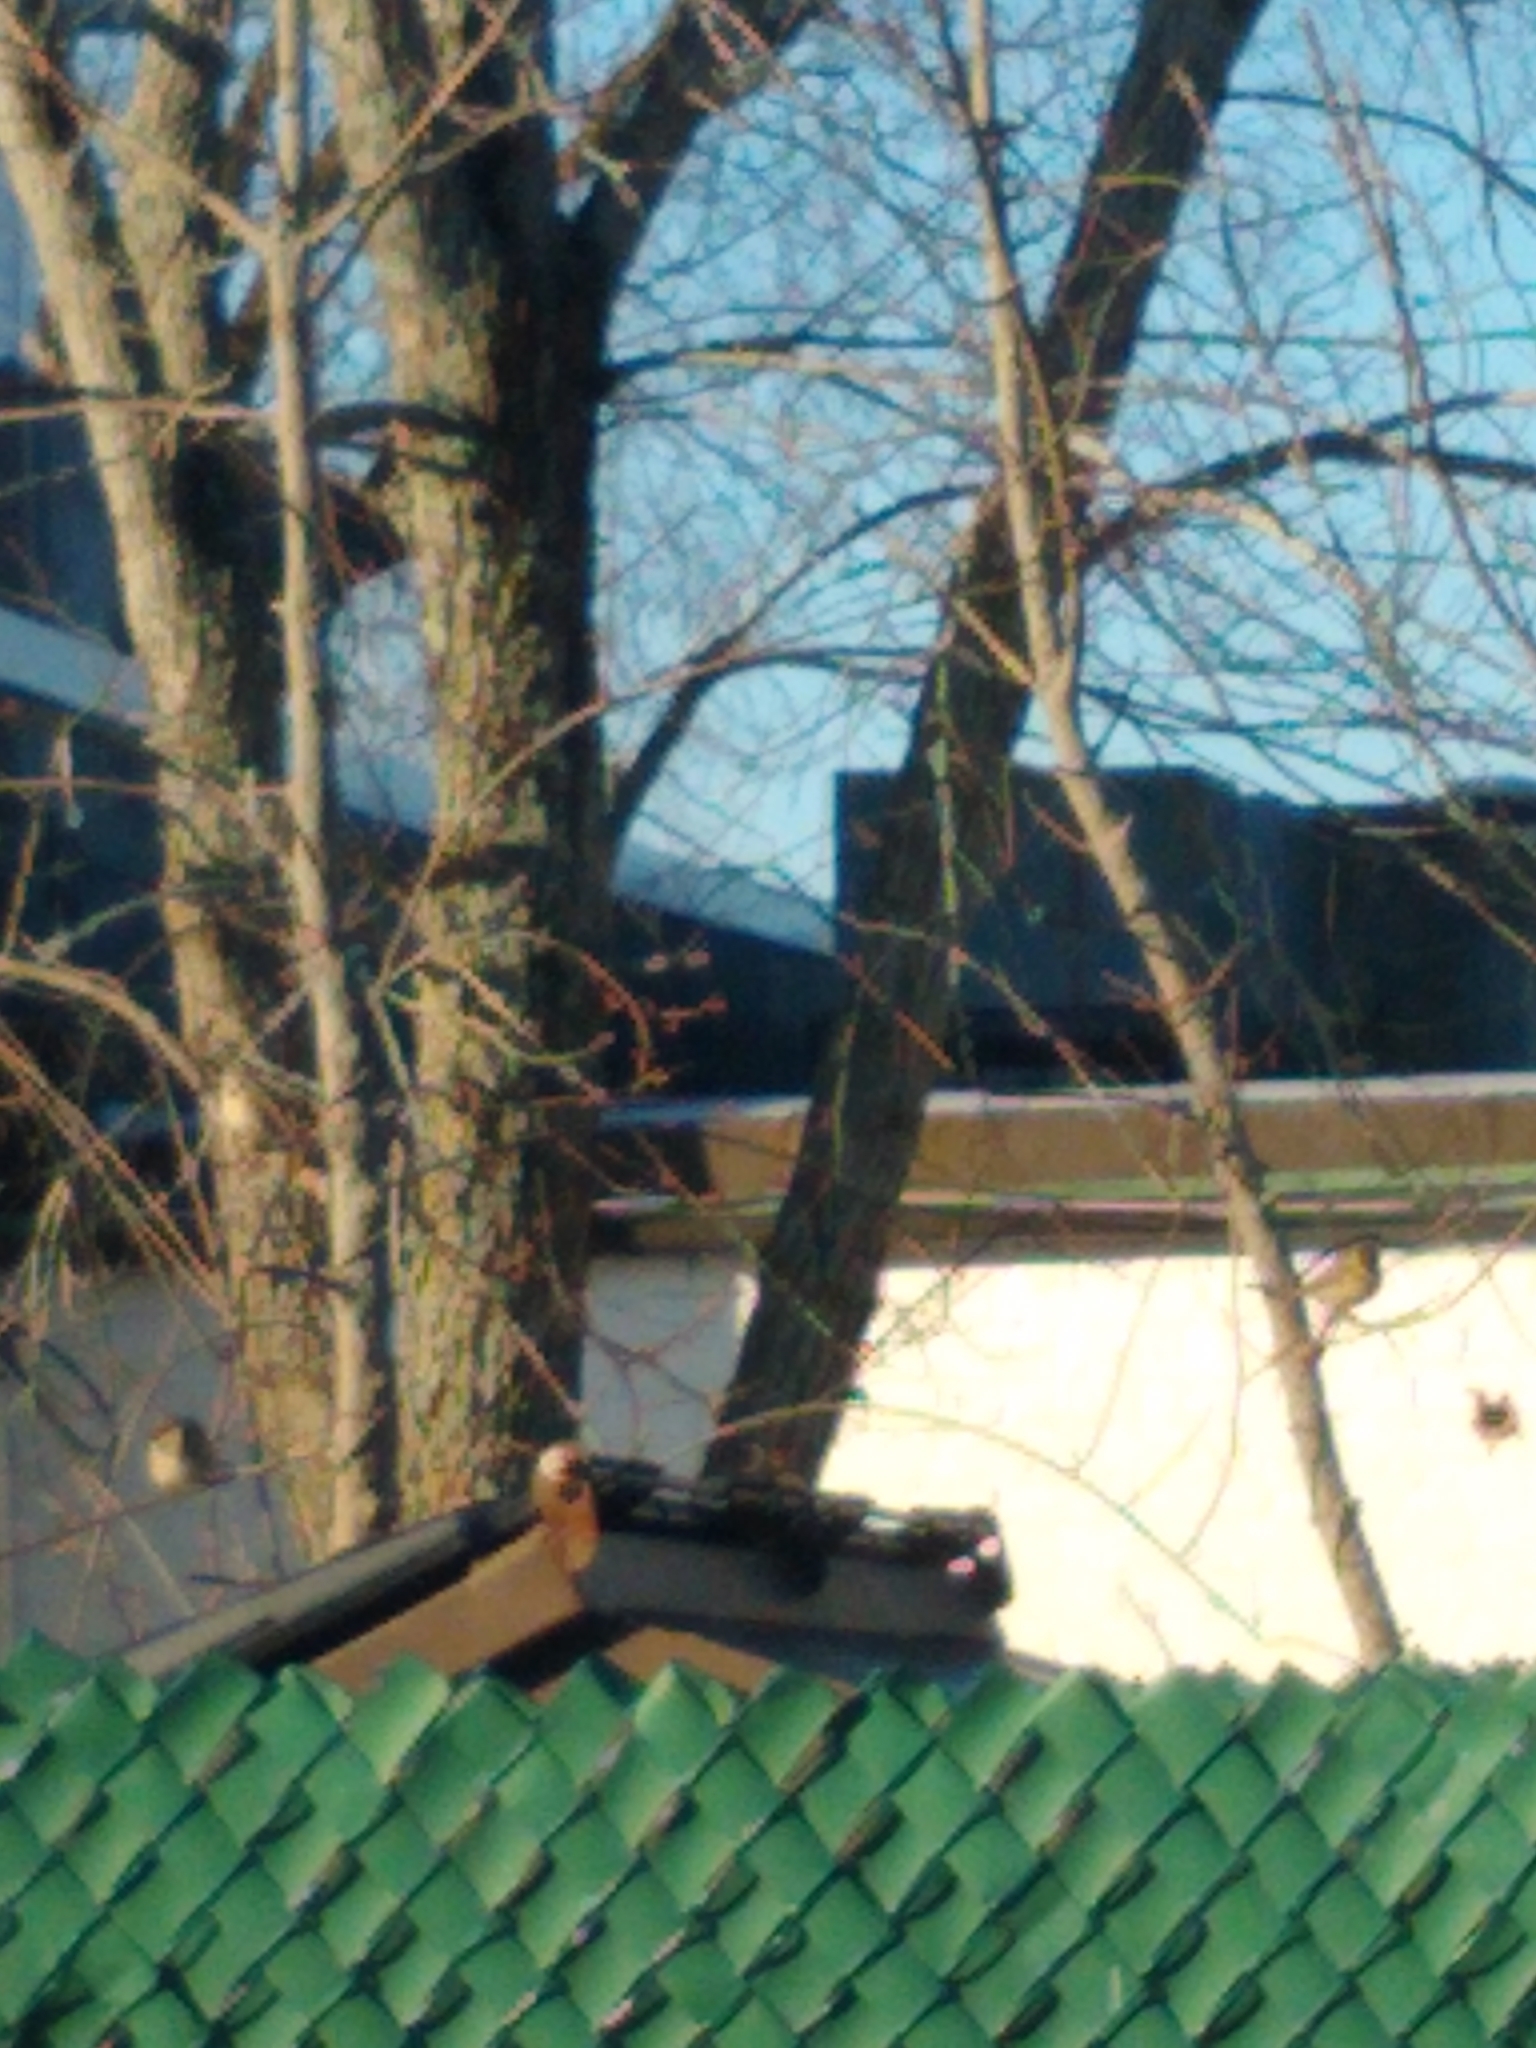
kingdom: Animalia
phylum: Chordata
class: Aves
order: Passeriformes
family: Passeridae
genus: Passer
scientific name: Passer domesticus
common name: House sparrow
